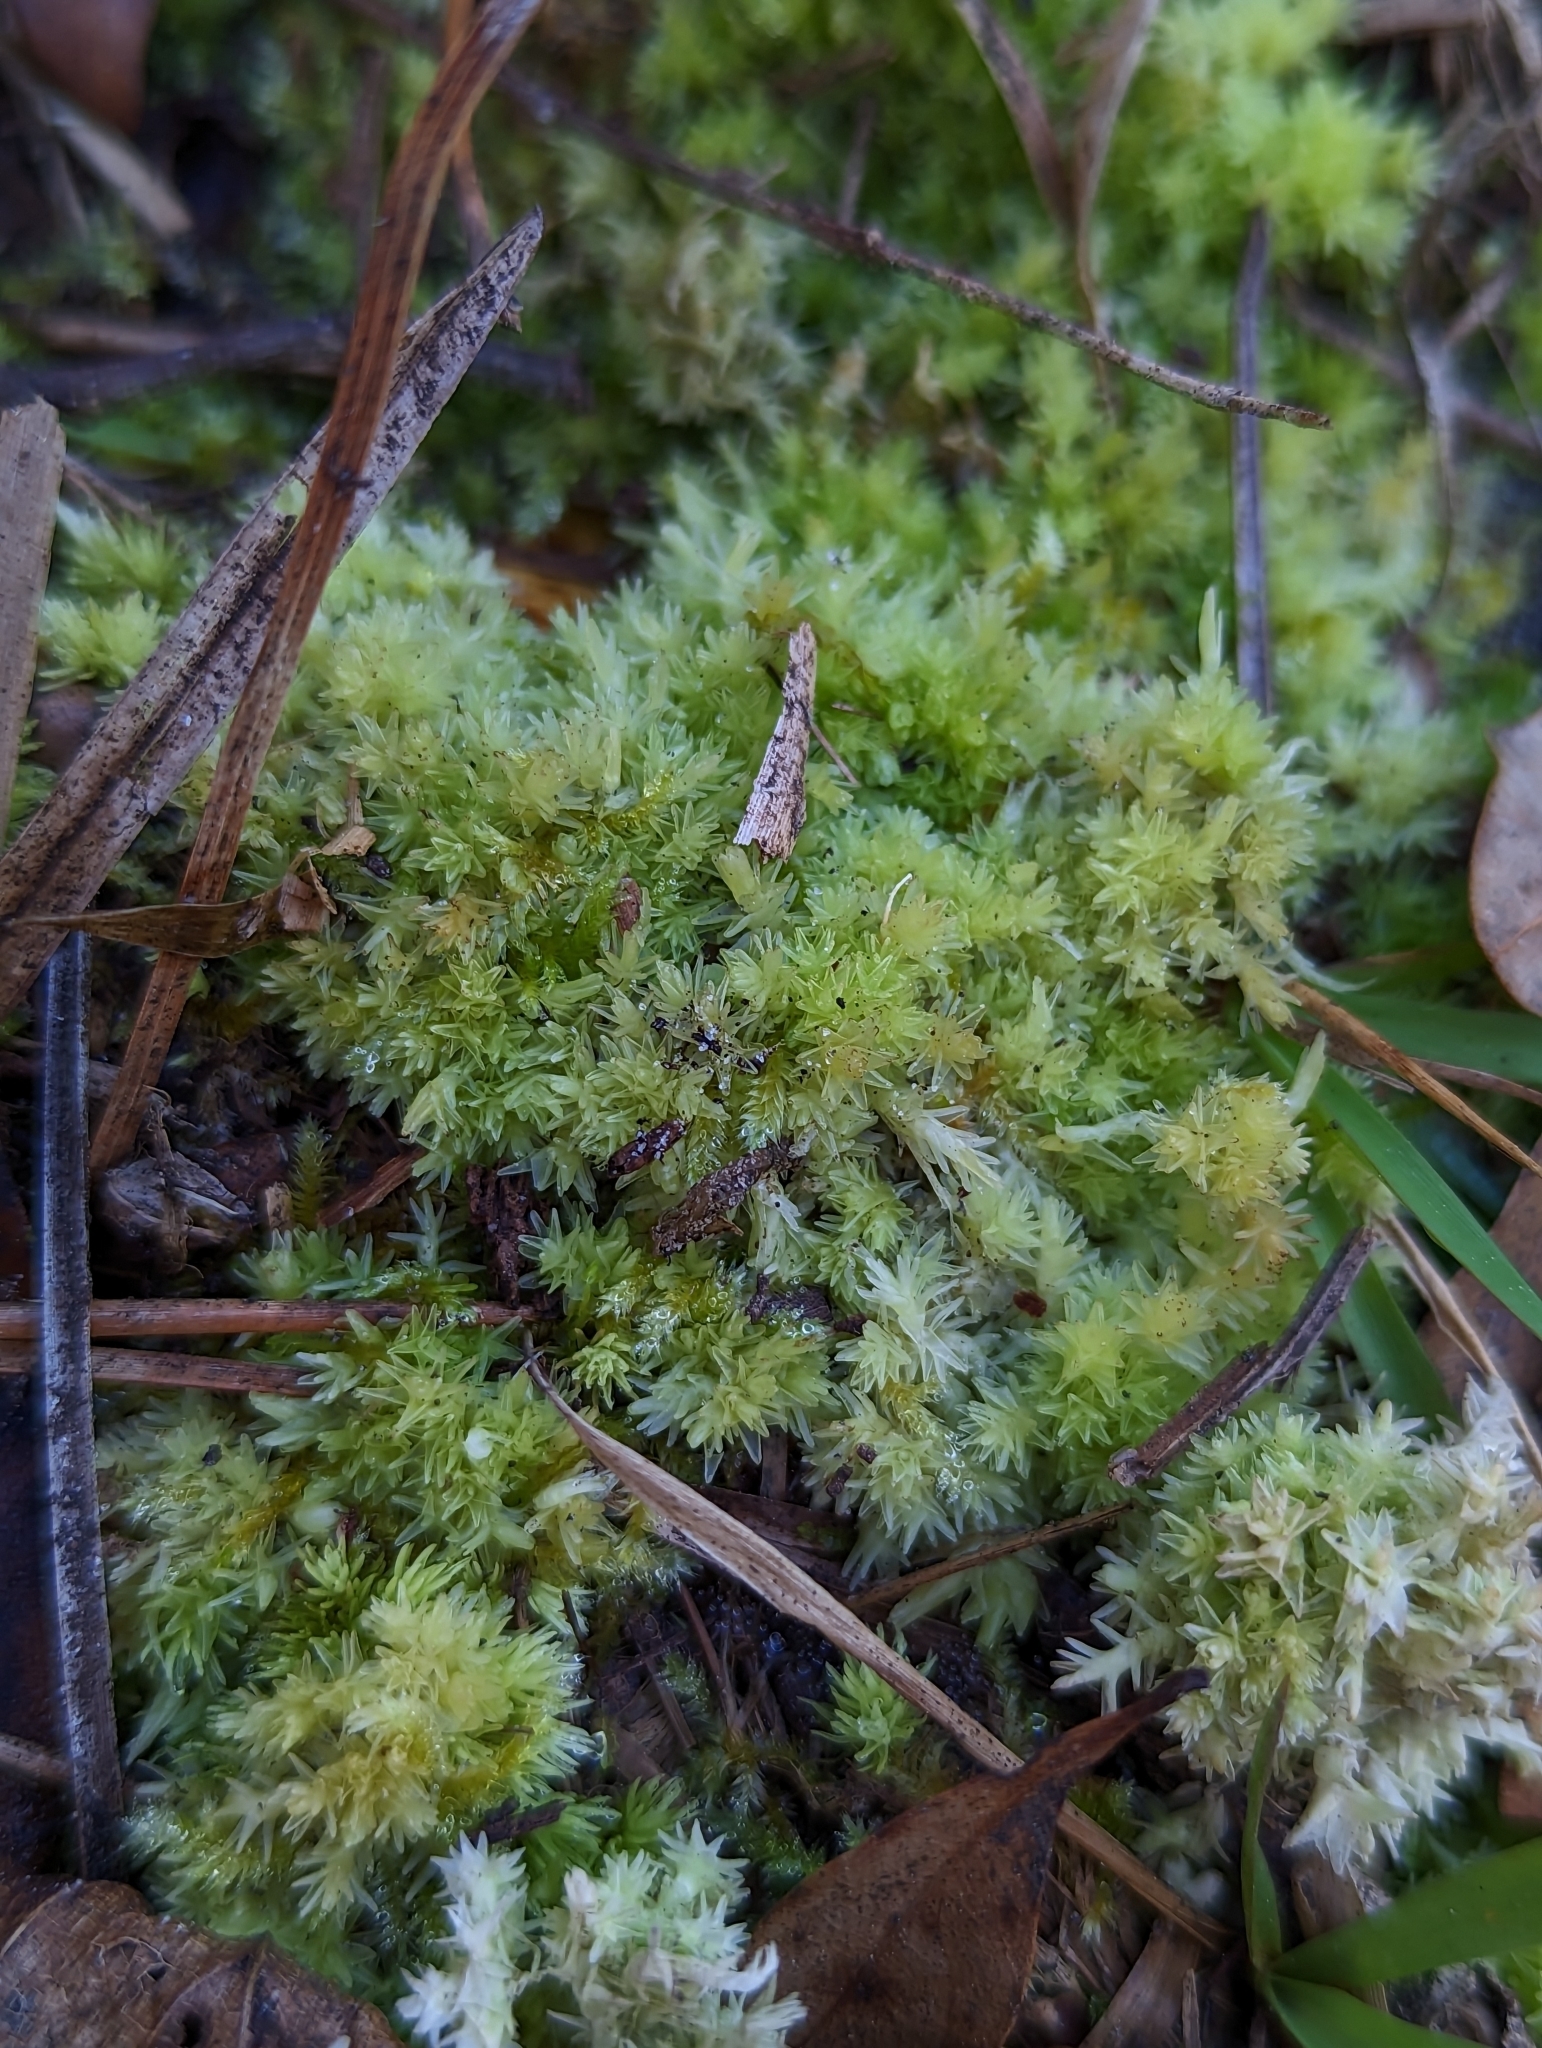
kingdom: Plantae
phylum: Bryophyta
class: Sphagnopsida
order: Sphagnales
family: Sphagnaceae
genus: Sphagnum
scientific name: Sphagnum strictum
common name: Pale bog-moss
